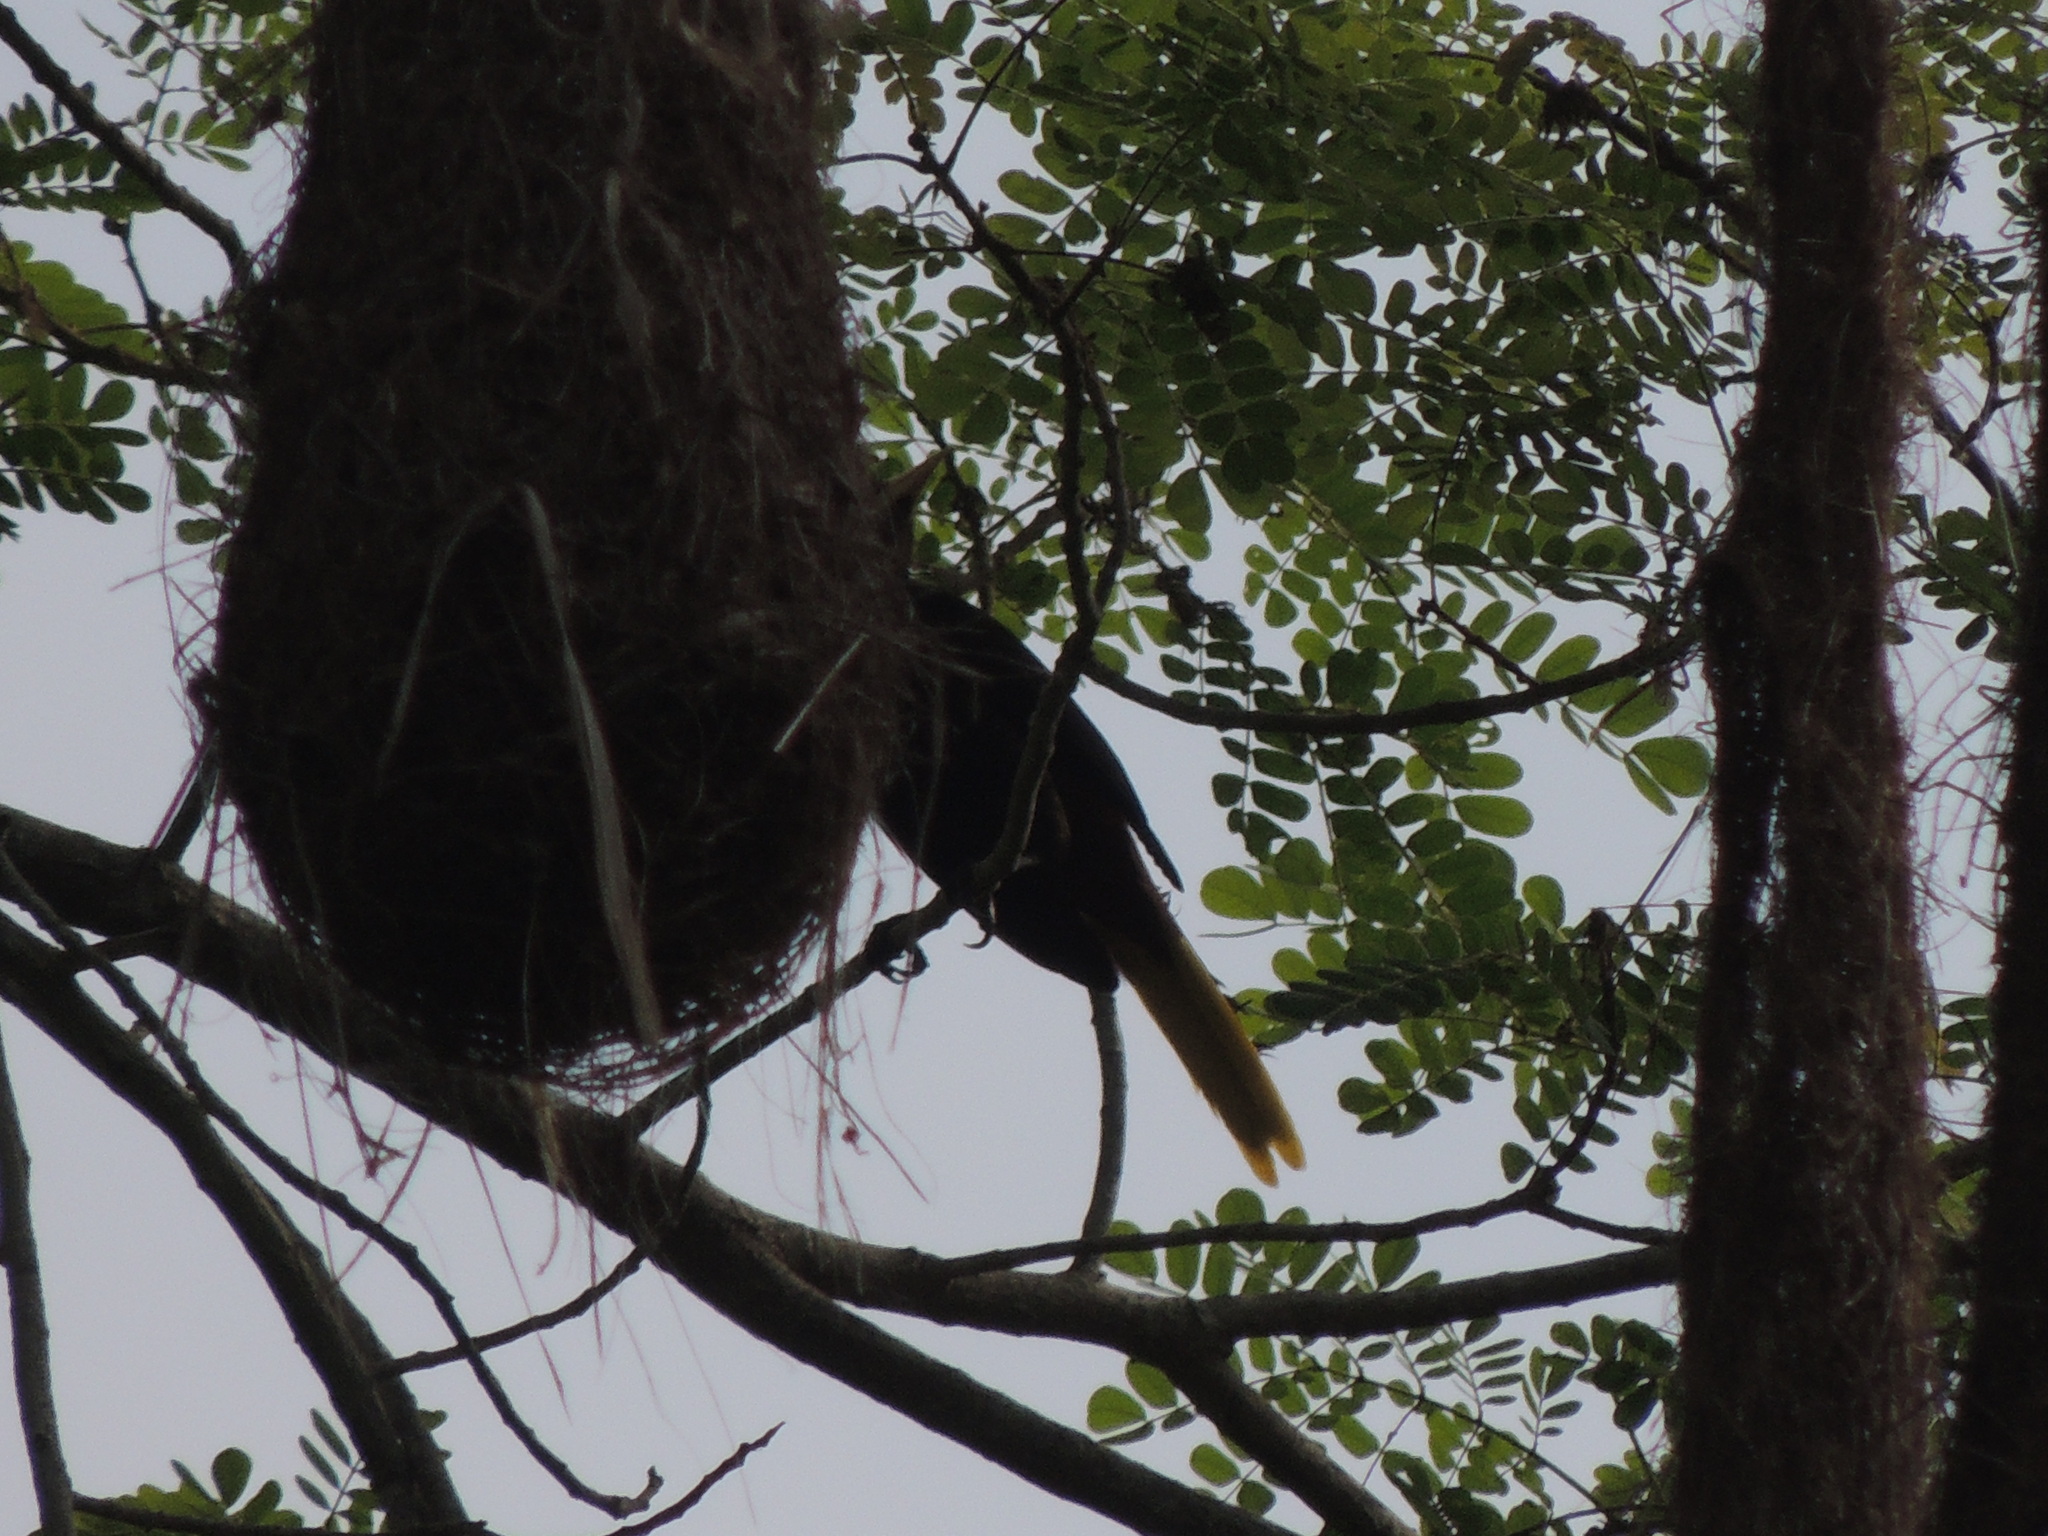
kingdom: Animalia
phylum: Chordata
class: Aves
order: Passeriformes
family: Icteridae
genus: Psarocolius
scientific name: Psarocolius decumanus
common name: Crested oropendola
